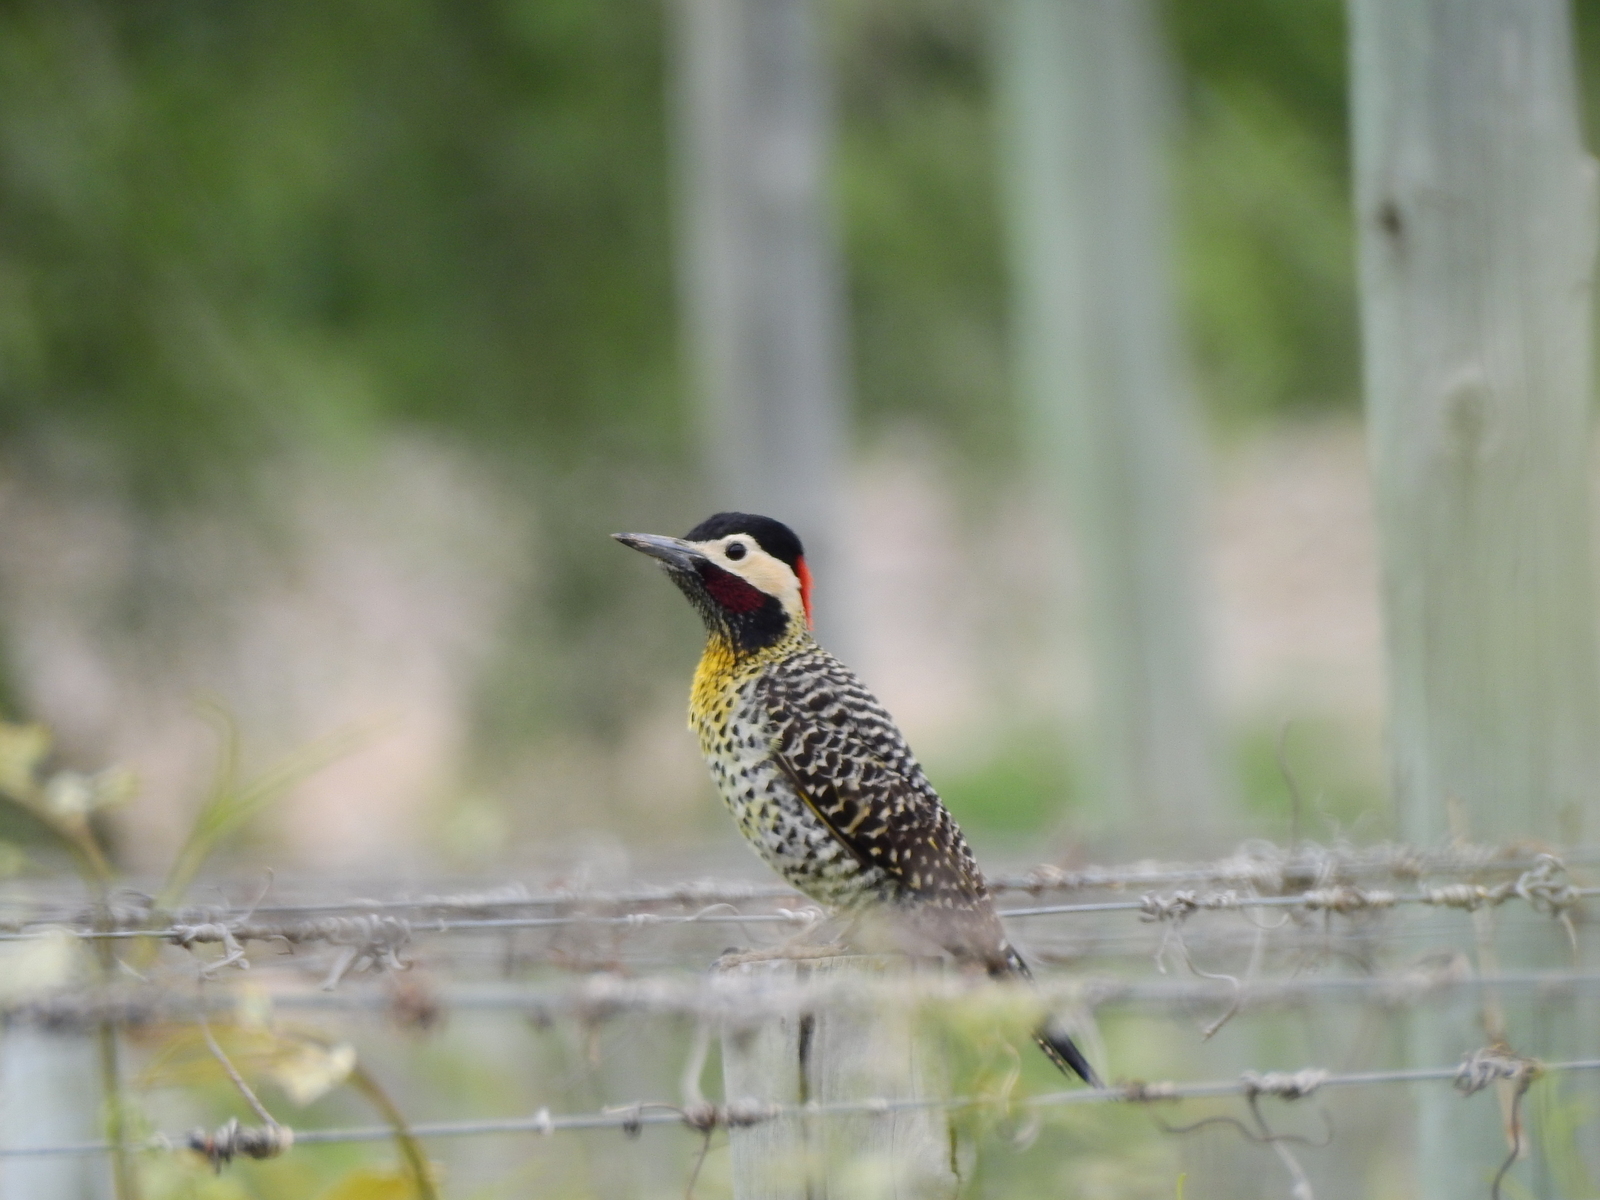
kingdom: Animalia
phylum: Chordata
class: Aves
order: Piciformes
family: Picidae
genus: Colaptes
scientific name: Colaptes melanochloros
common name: Green-barred woodpecker
